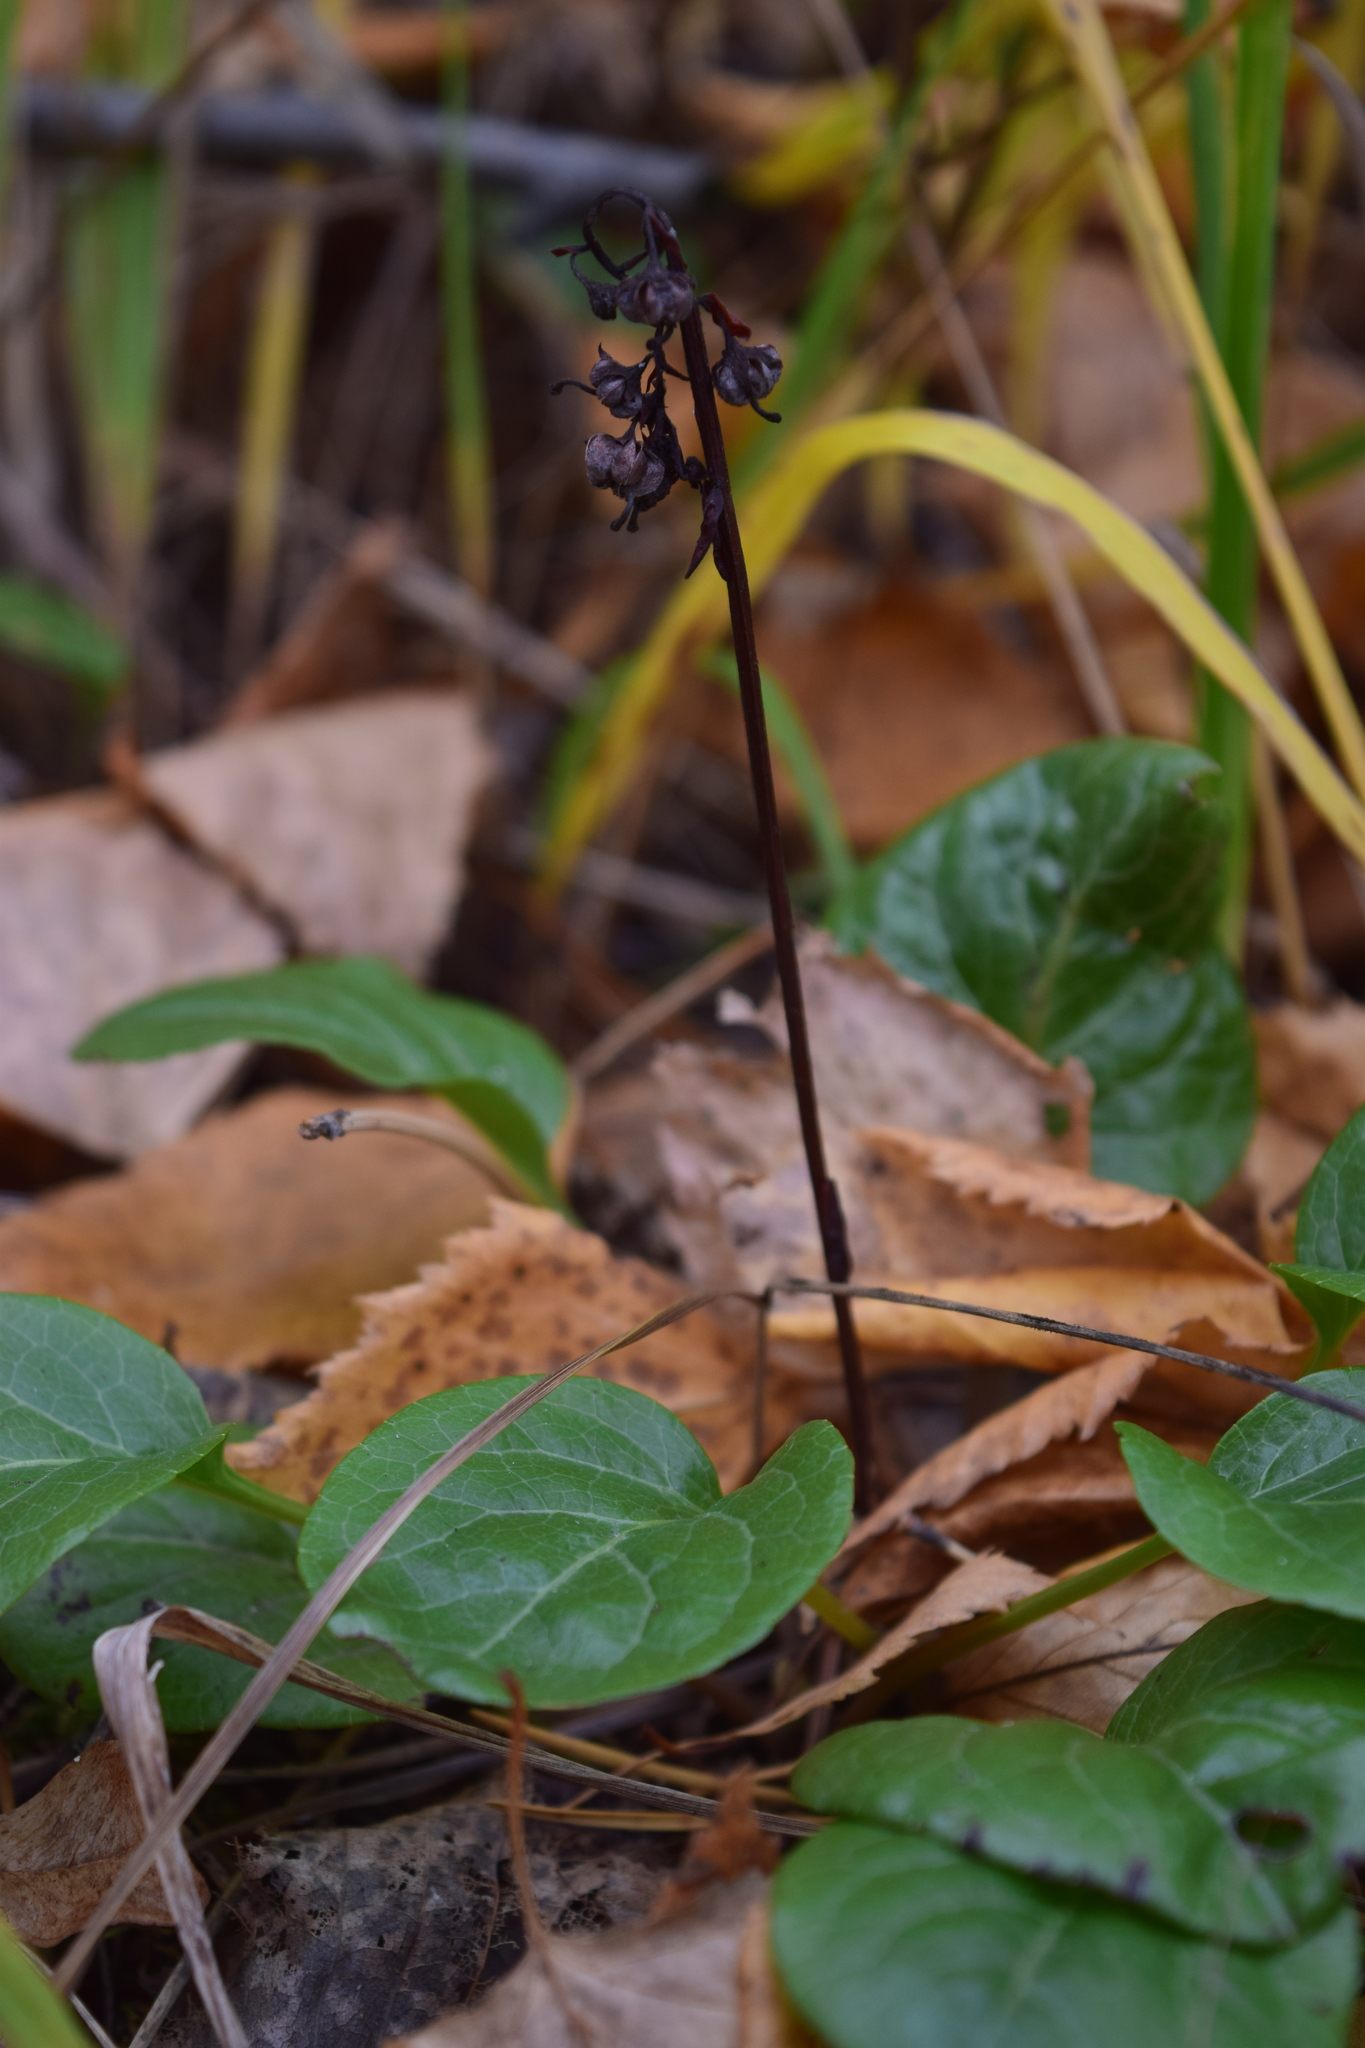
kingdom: Plantae
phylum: Tracheophyta
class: Magnoliopsida
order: Ericales
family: Ericaceae
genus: Pyrola
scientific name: Pyrola rotundifolia
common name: Round-leaved wintergreen
